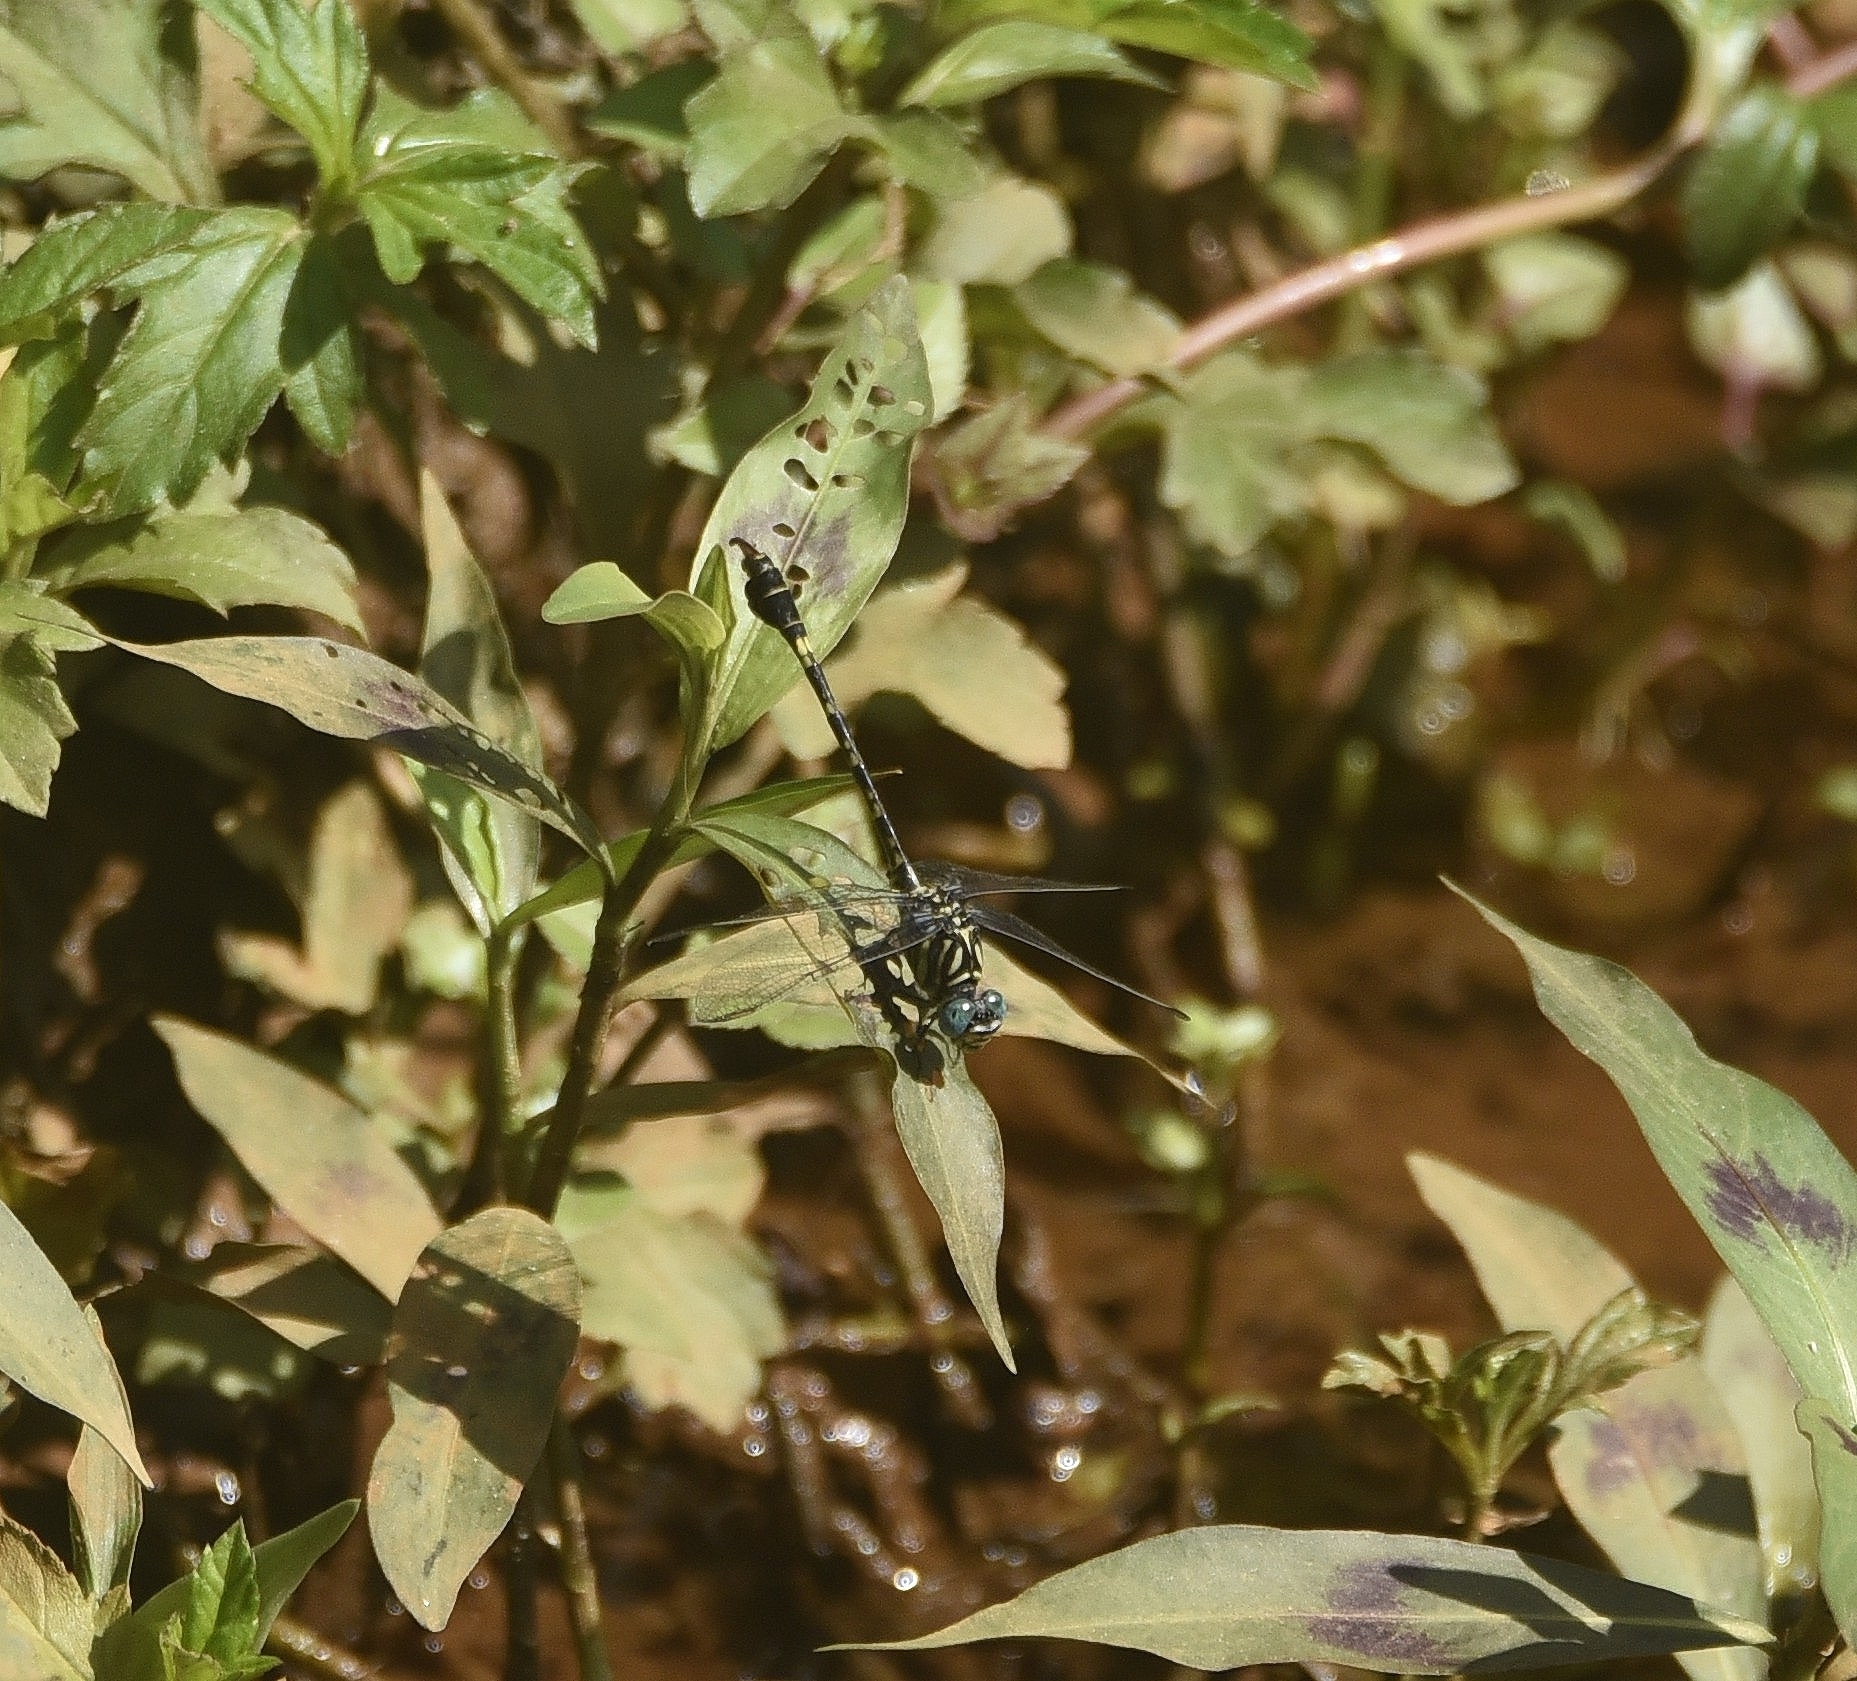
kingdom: Animalia
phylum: Arthropoda
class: Insecta
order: Odonata
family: Gomphidae
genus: Paragomphus
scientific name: Paragomphus lineatus
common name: Lined hooktail
